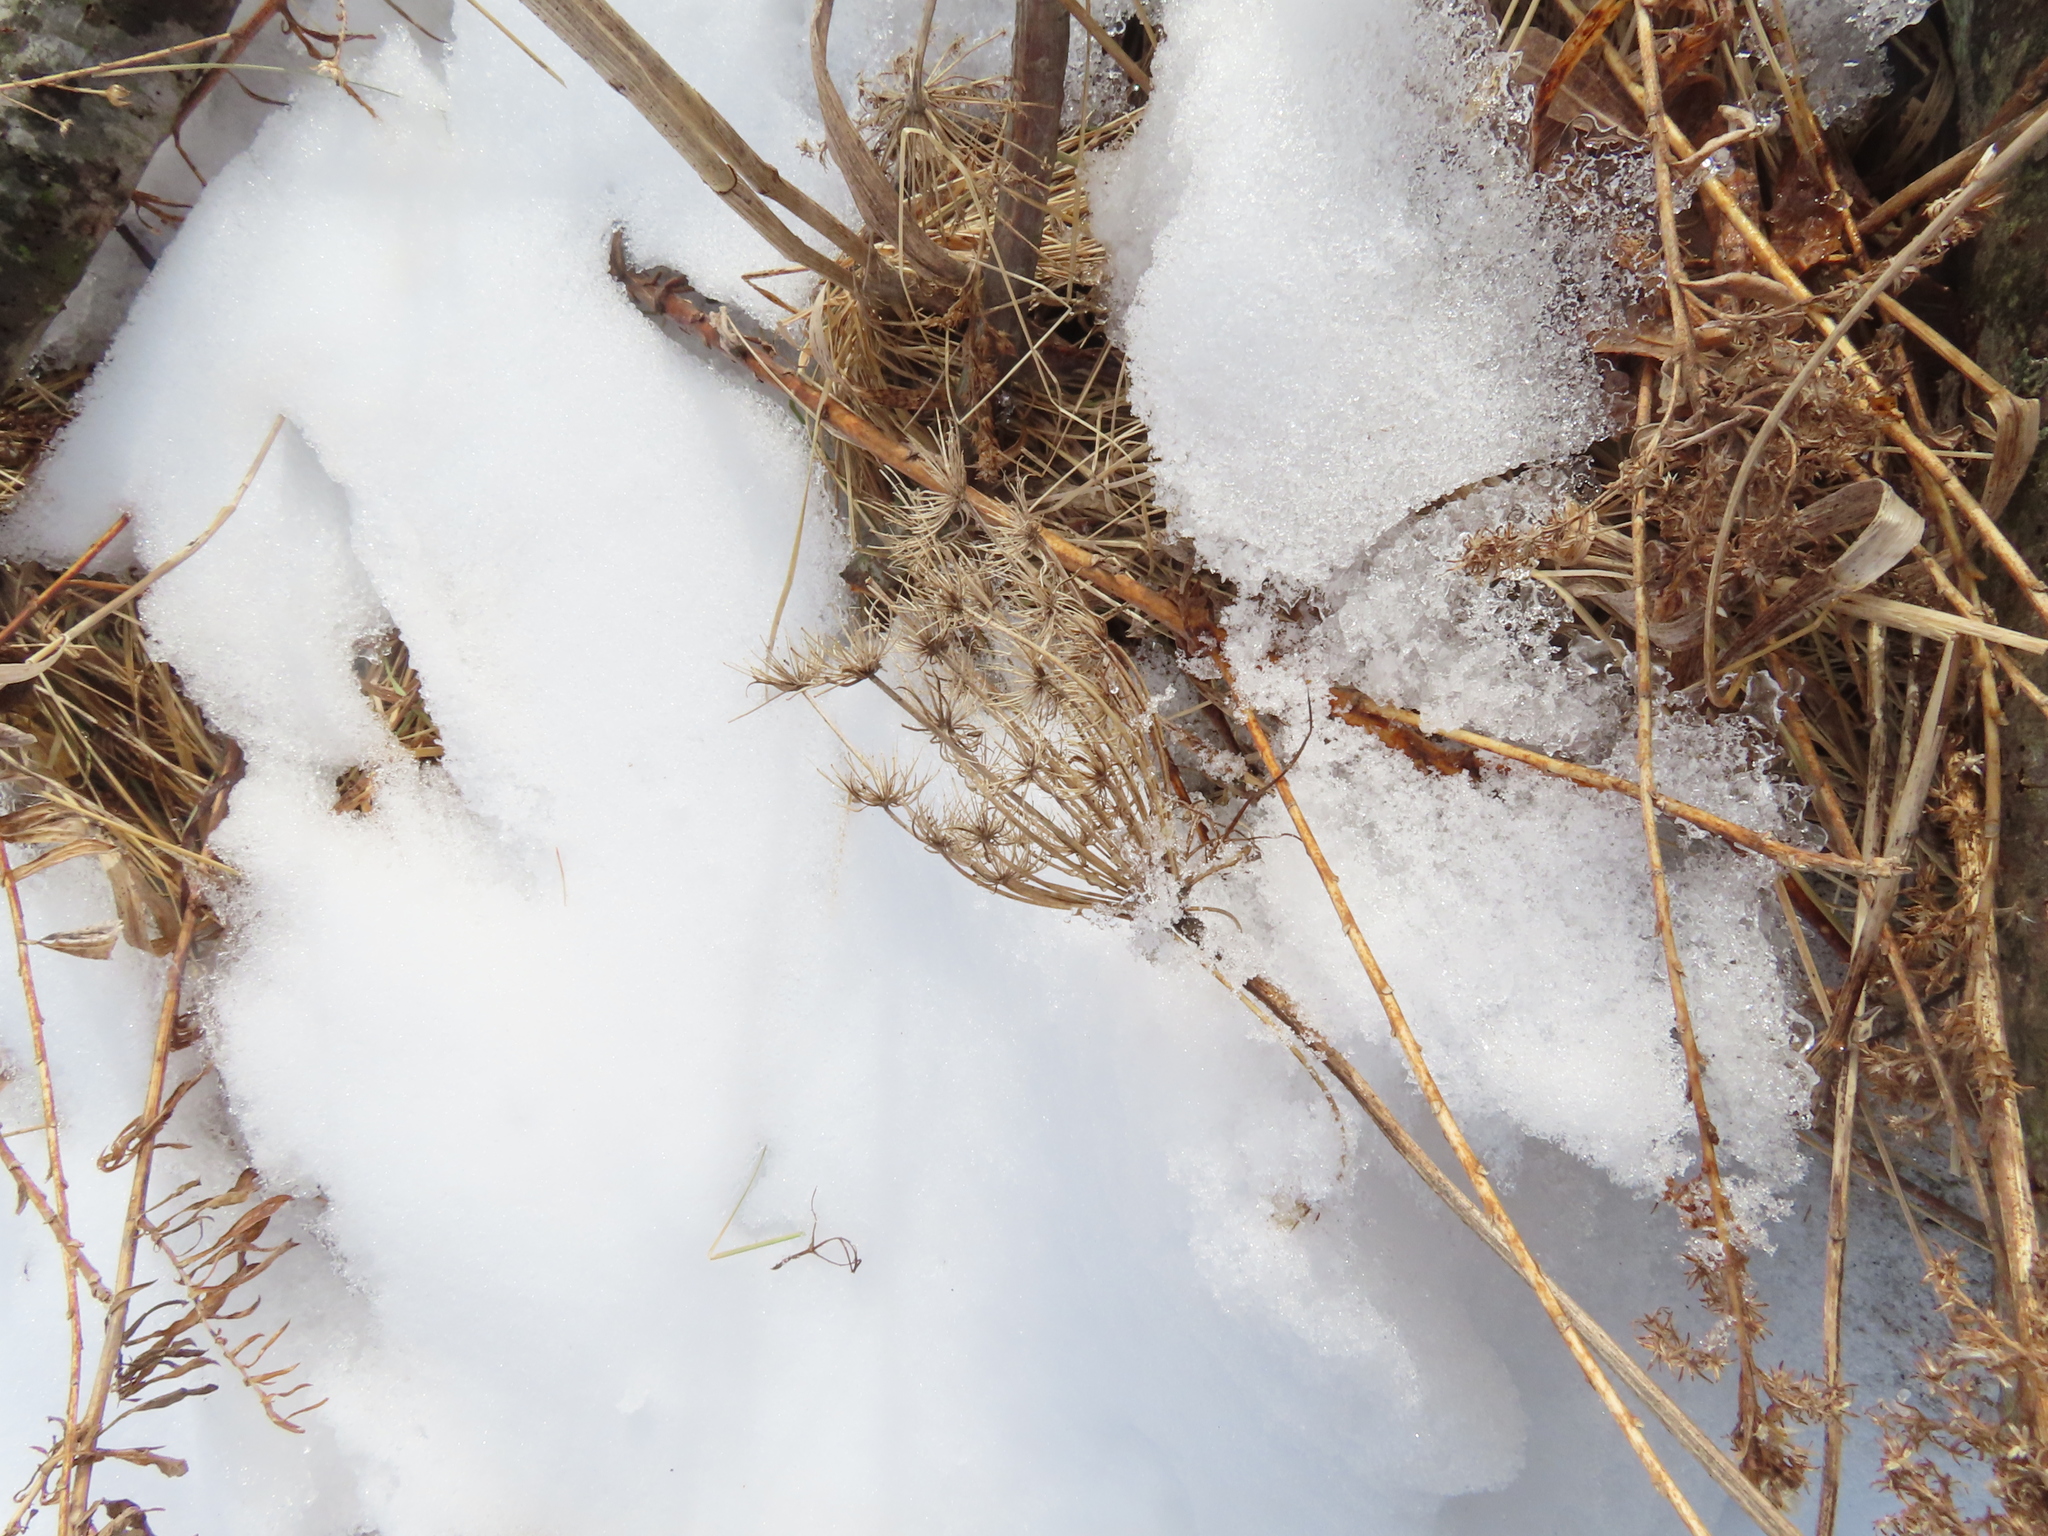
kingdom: Plantae
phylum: Tracheophyta
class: Magnoliopsida
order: Apiales
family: Apiaceae
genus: Daucus
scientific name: Daucus carota
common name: Wild carrot
